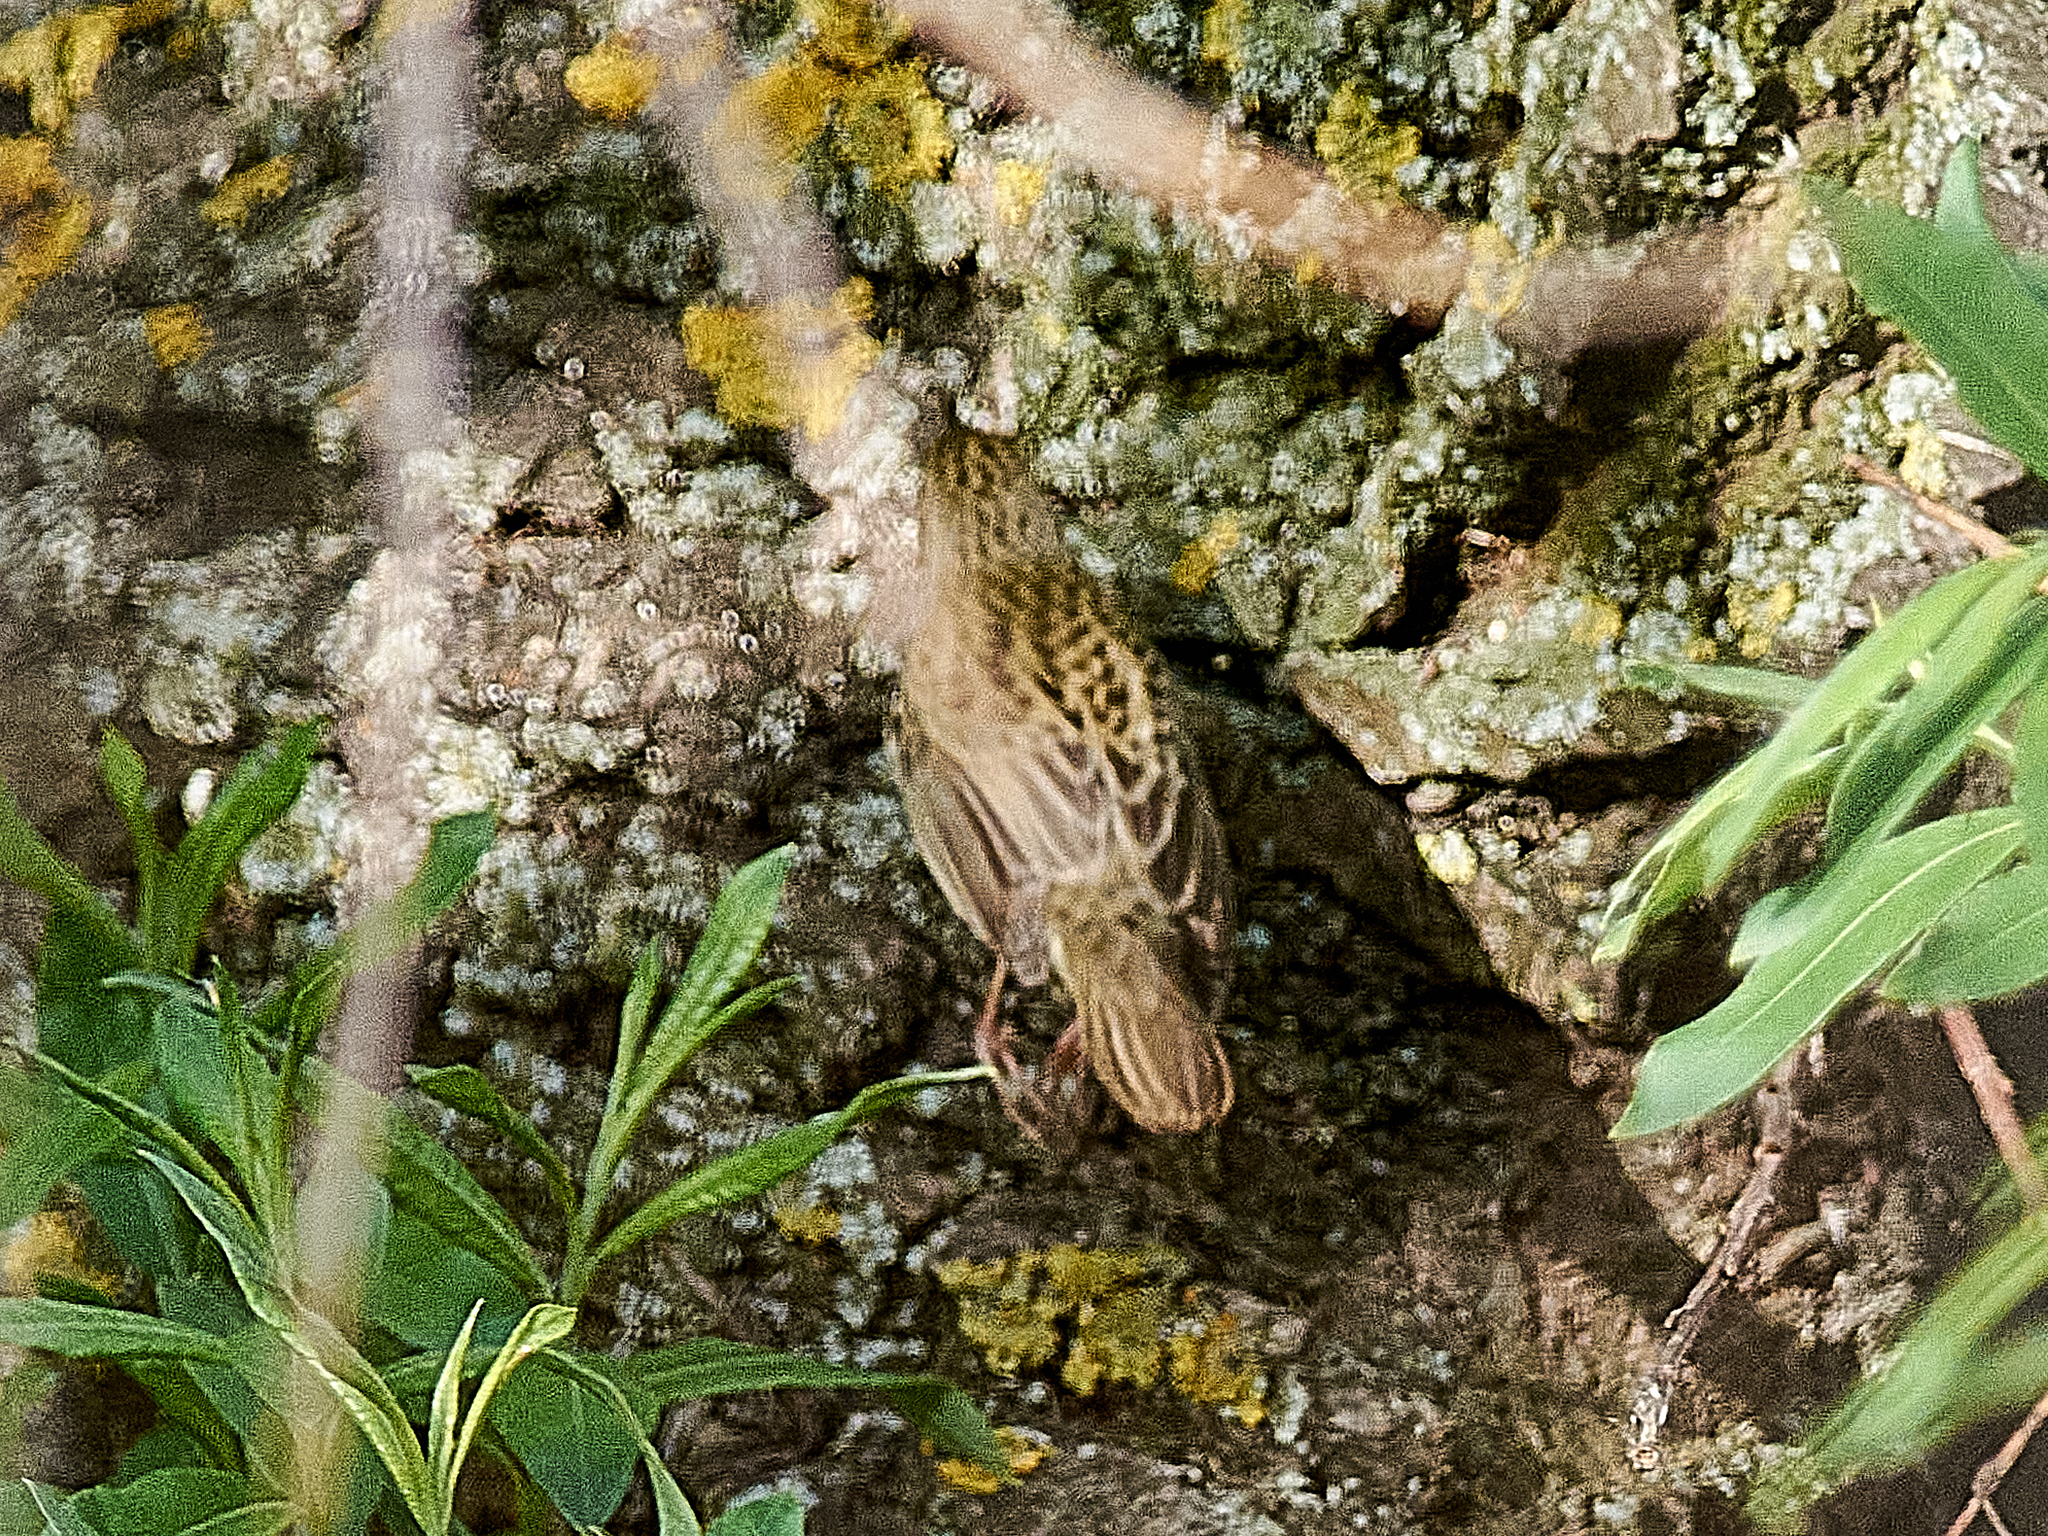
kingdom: Animalia
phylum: Chordata
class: Aves
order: Passeriformes
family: Locustellidae
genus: Locustella
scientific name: Locustella naevia
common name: Common grasshopper warbler
